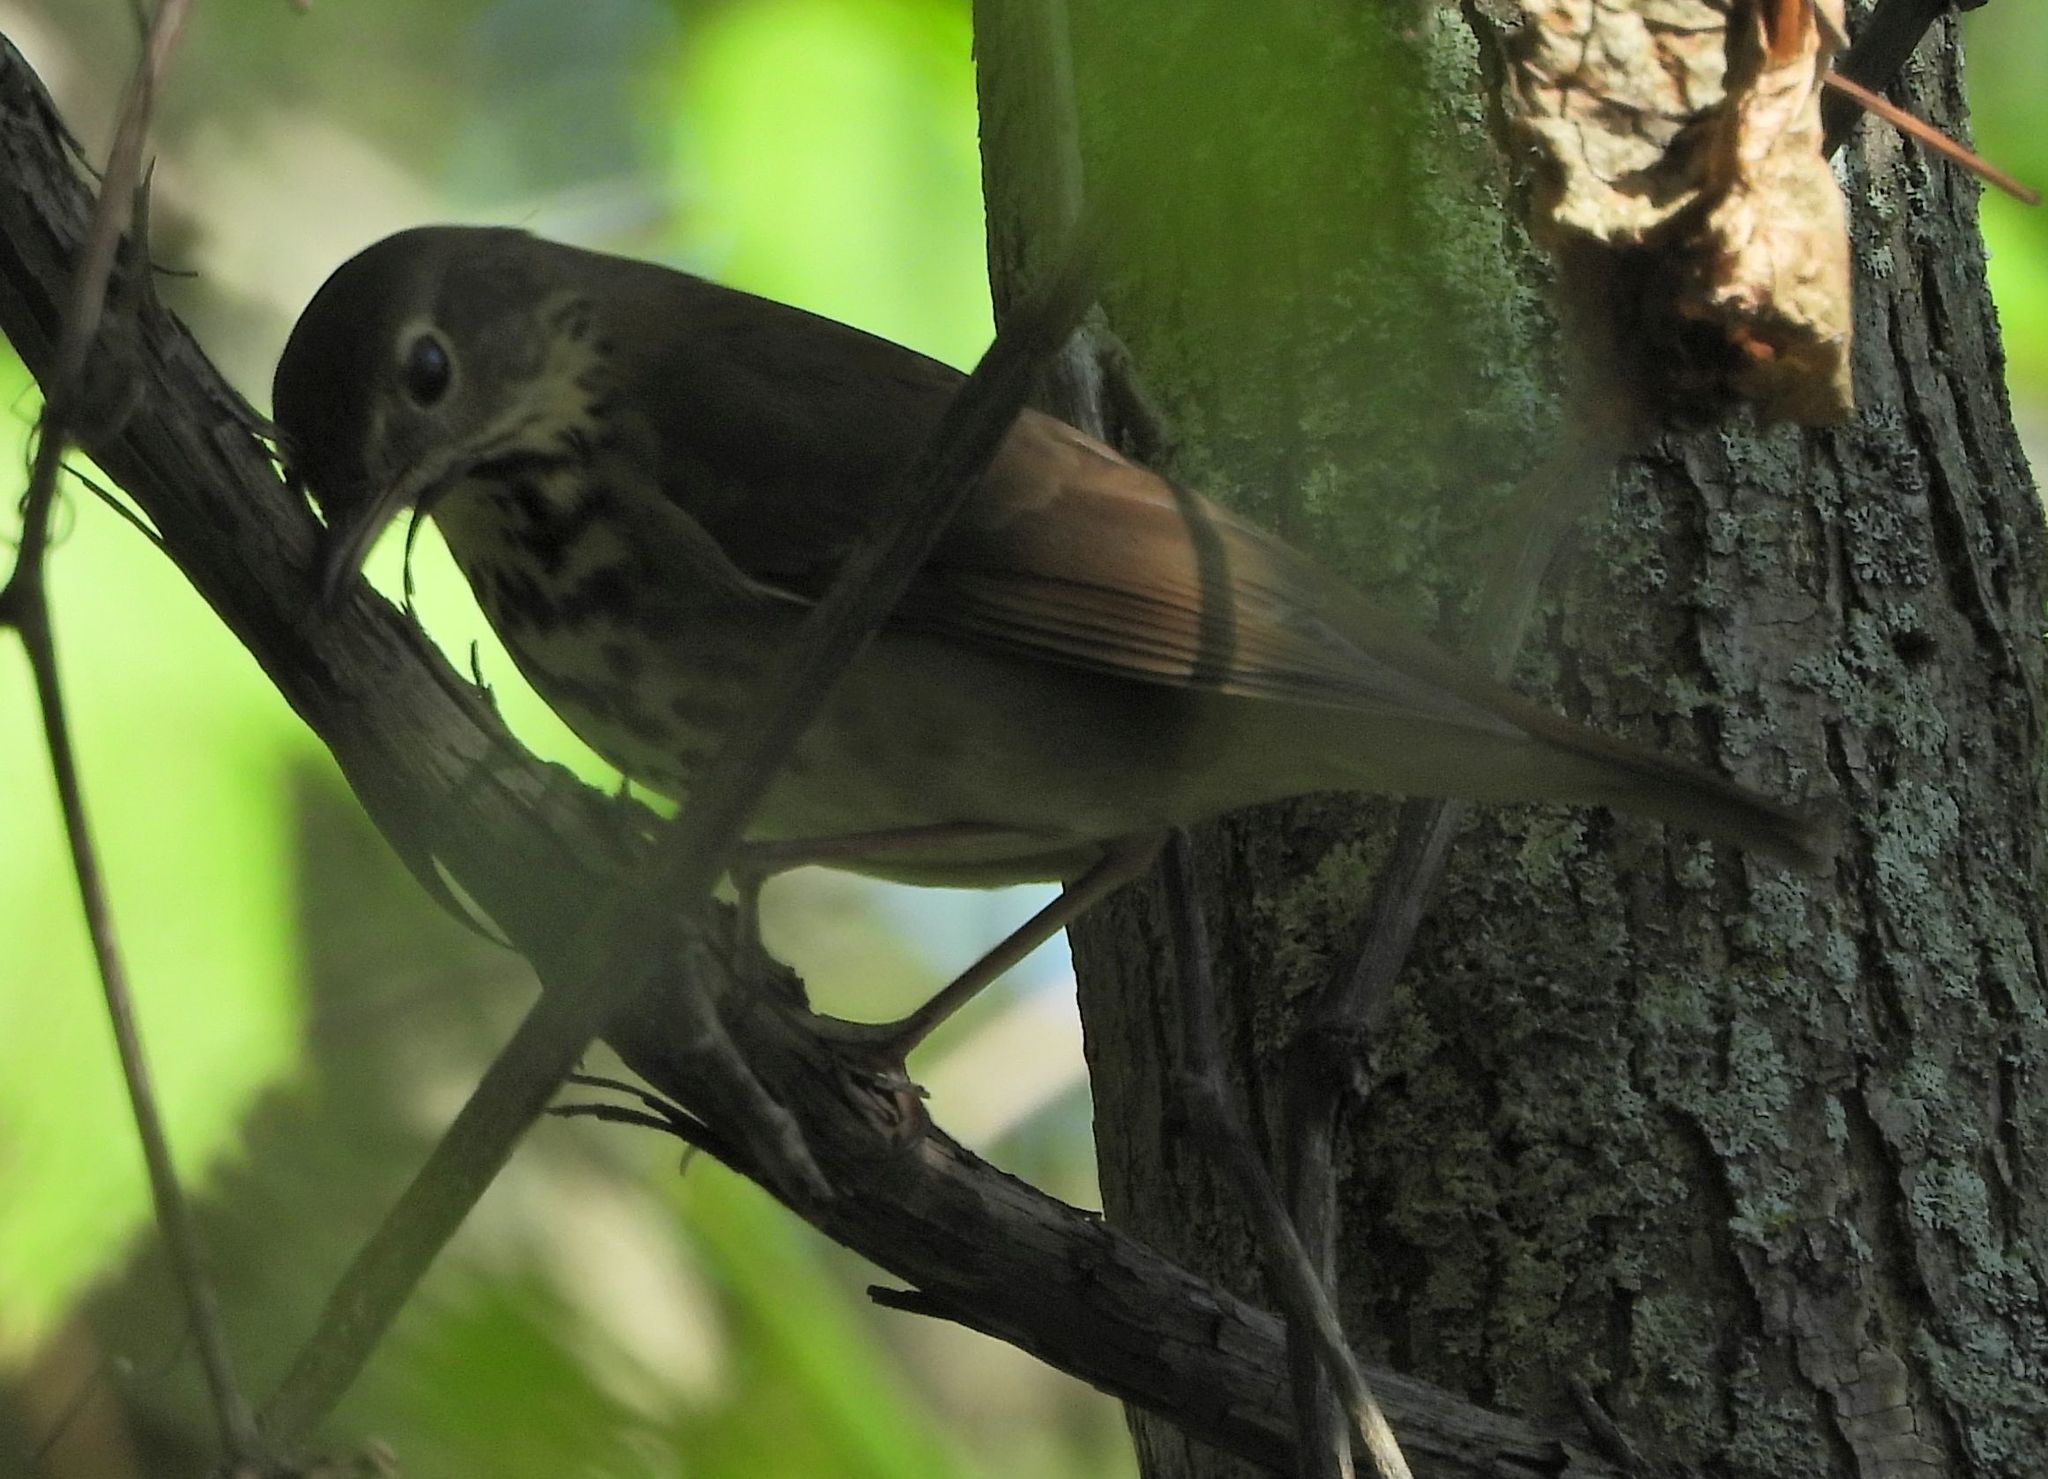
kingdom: Animalia
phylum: Chordata
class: Aves
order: Passeriformes
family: Turdidae
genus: Catharus
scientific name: Catharus guttatus
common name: Hermit thrush
